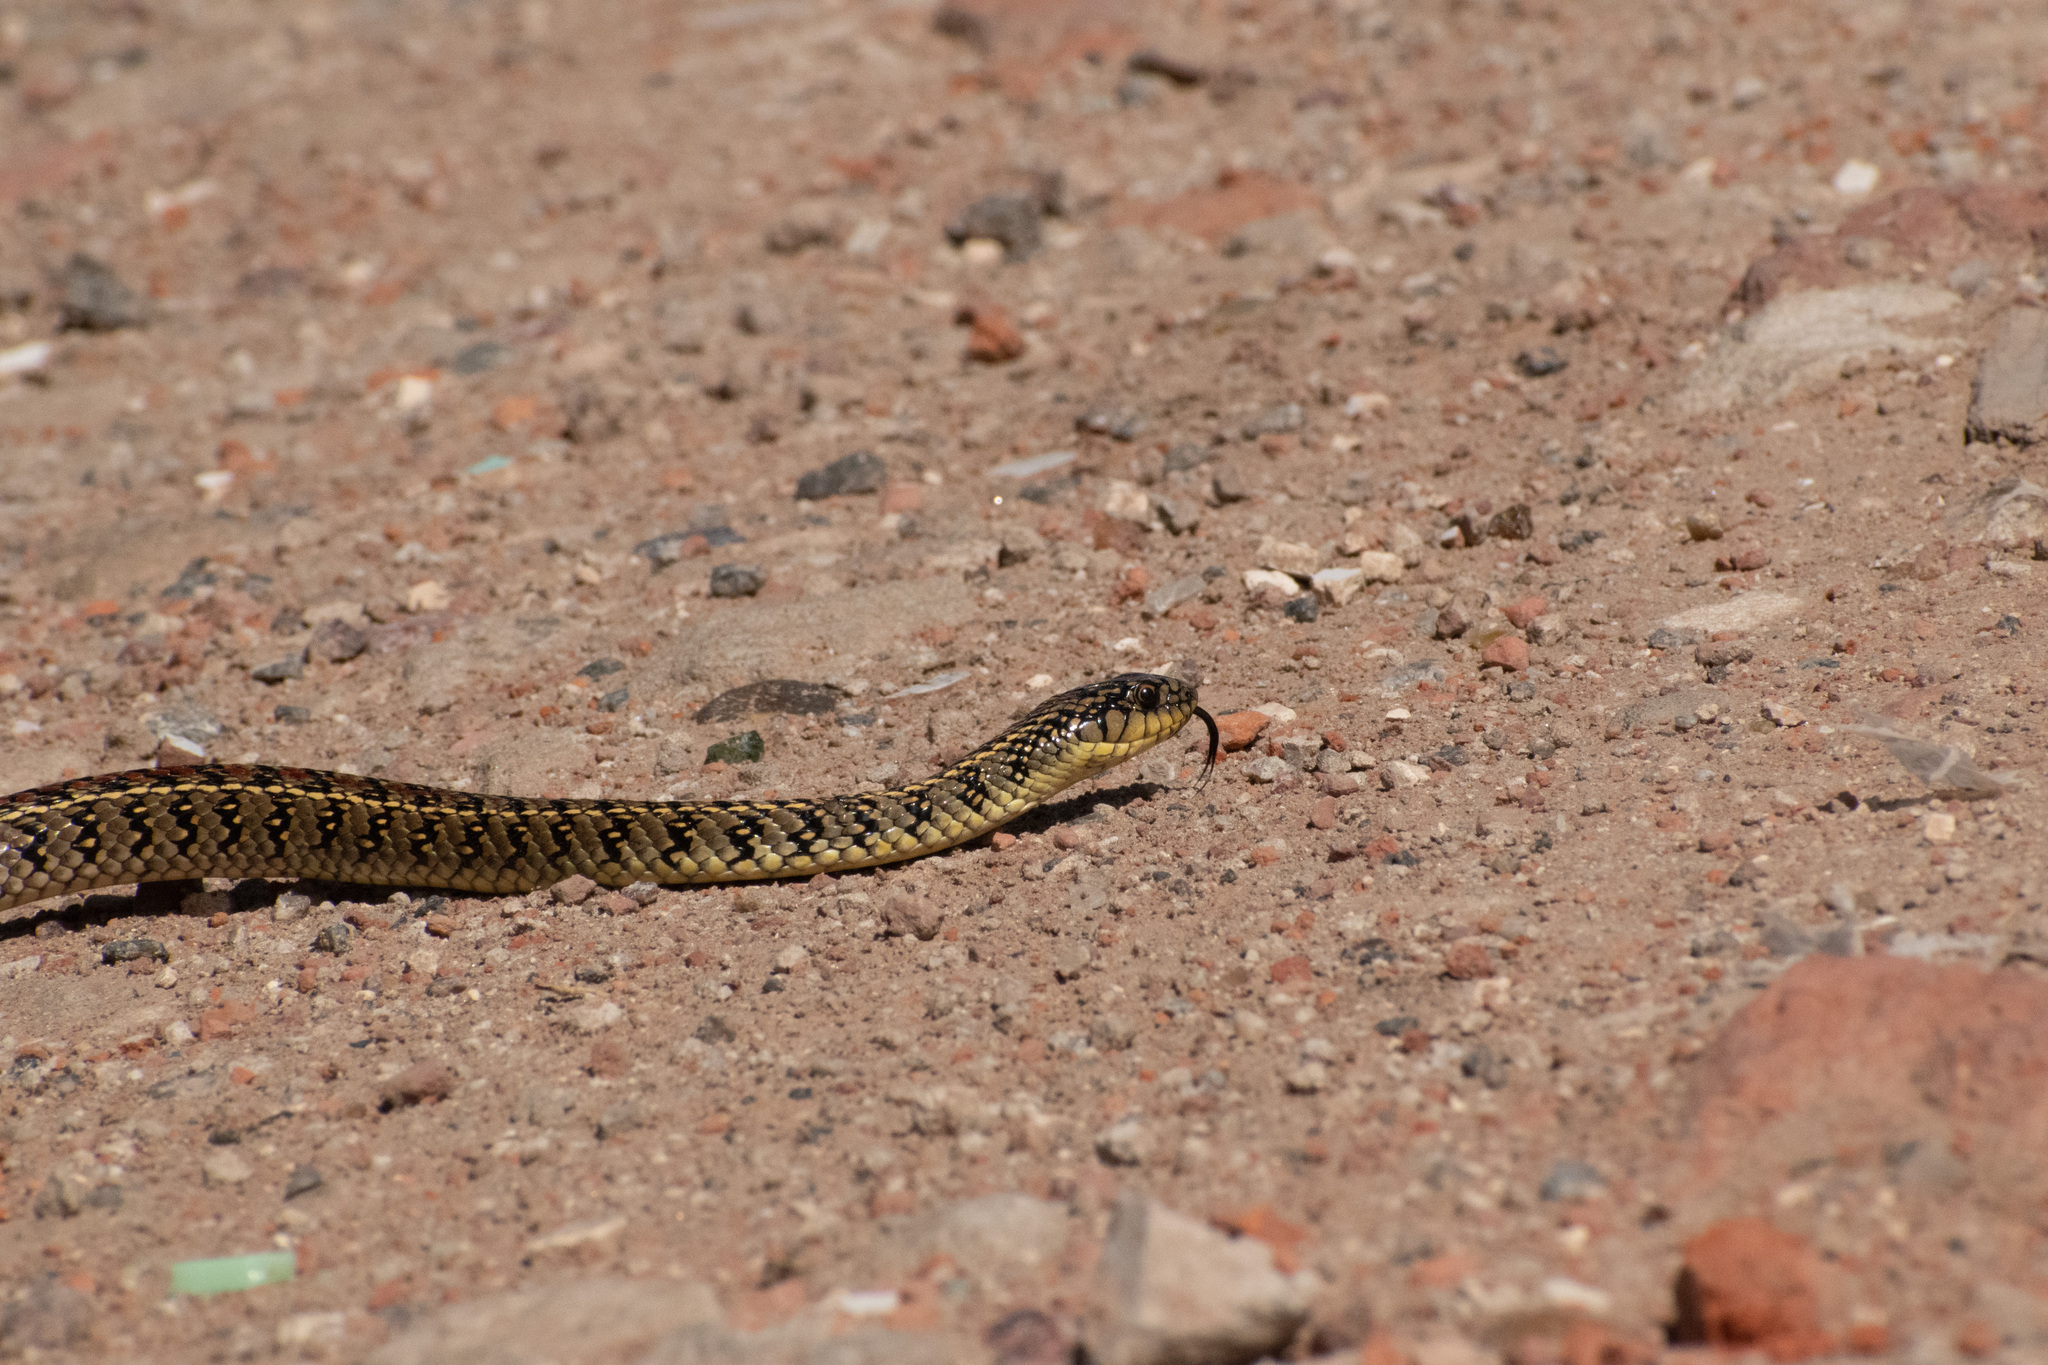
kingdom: Animalia
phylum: Chordata
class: Squamata
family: Colubridae
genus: Lygophis
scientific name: Lygophis anomalus
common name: English common name not available
